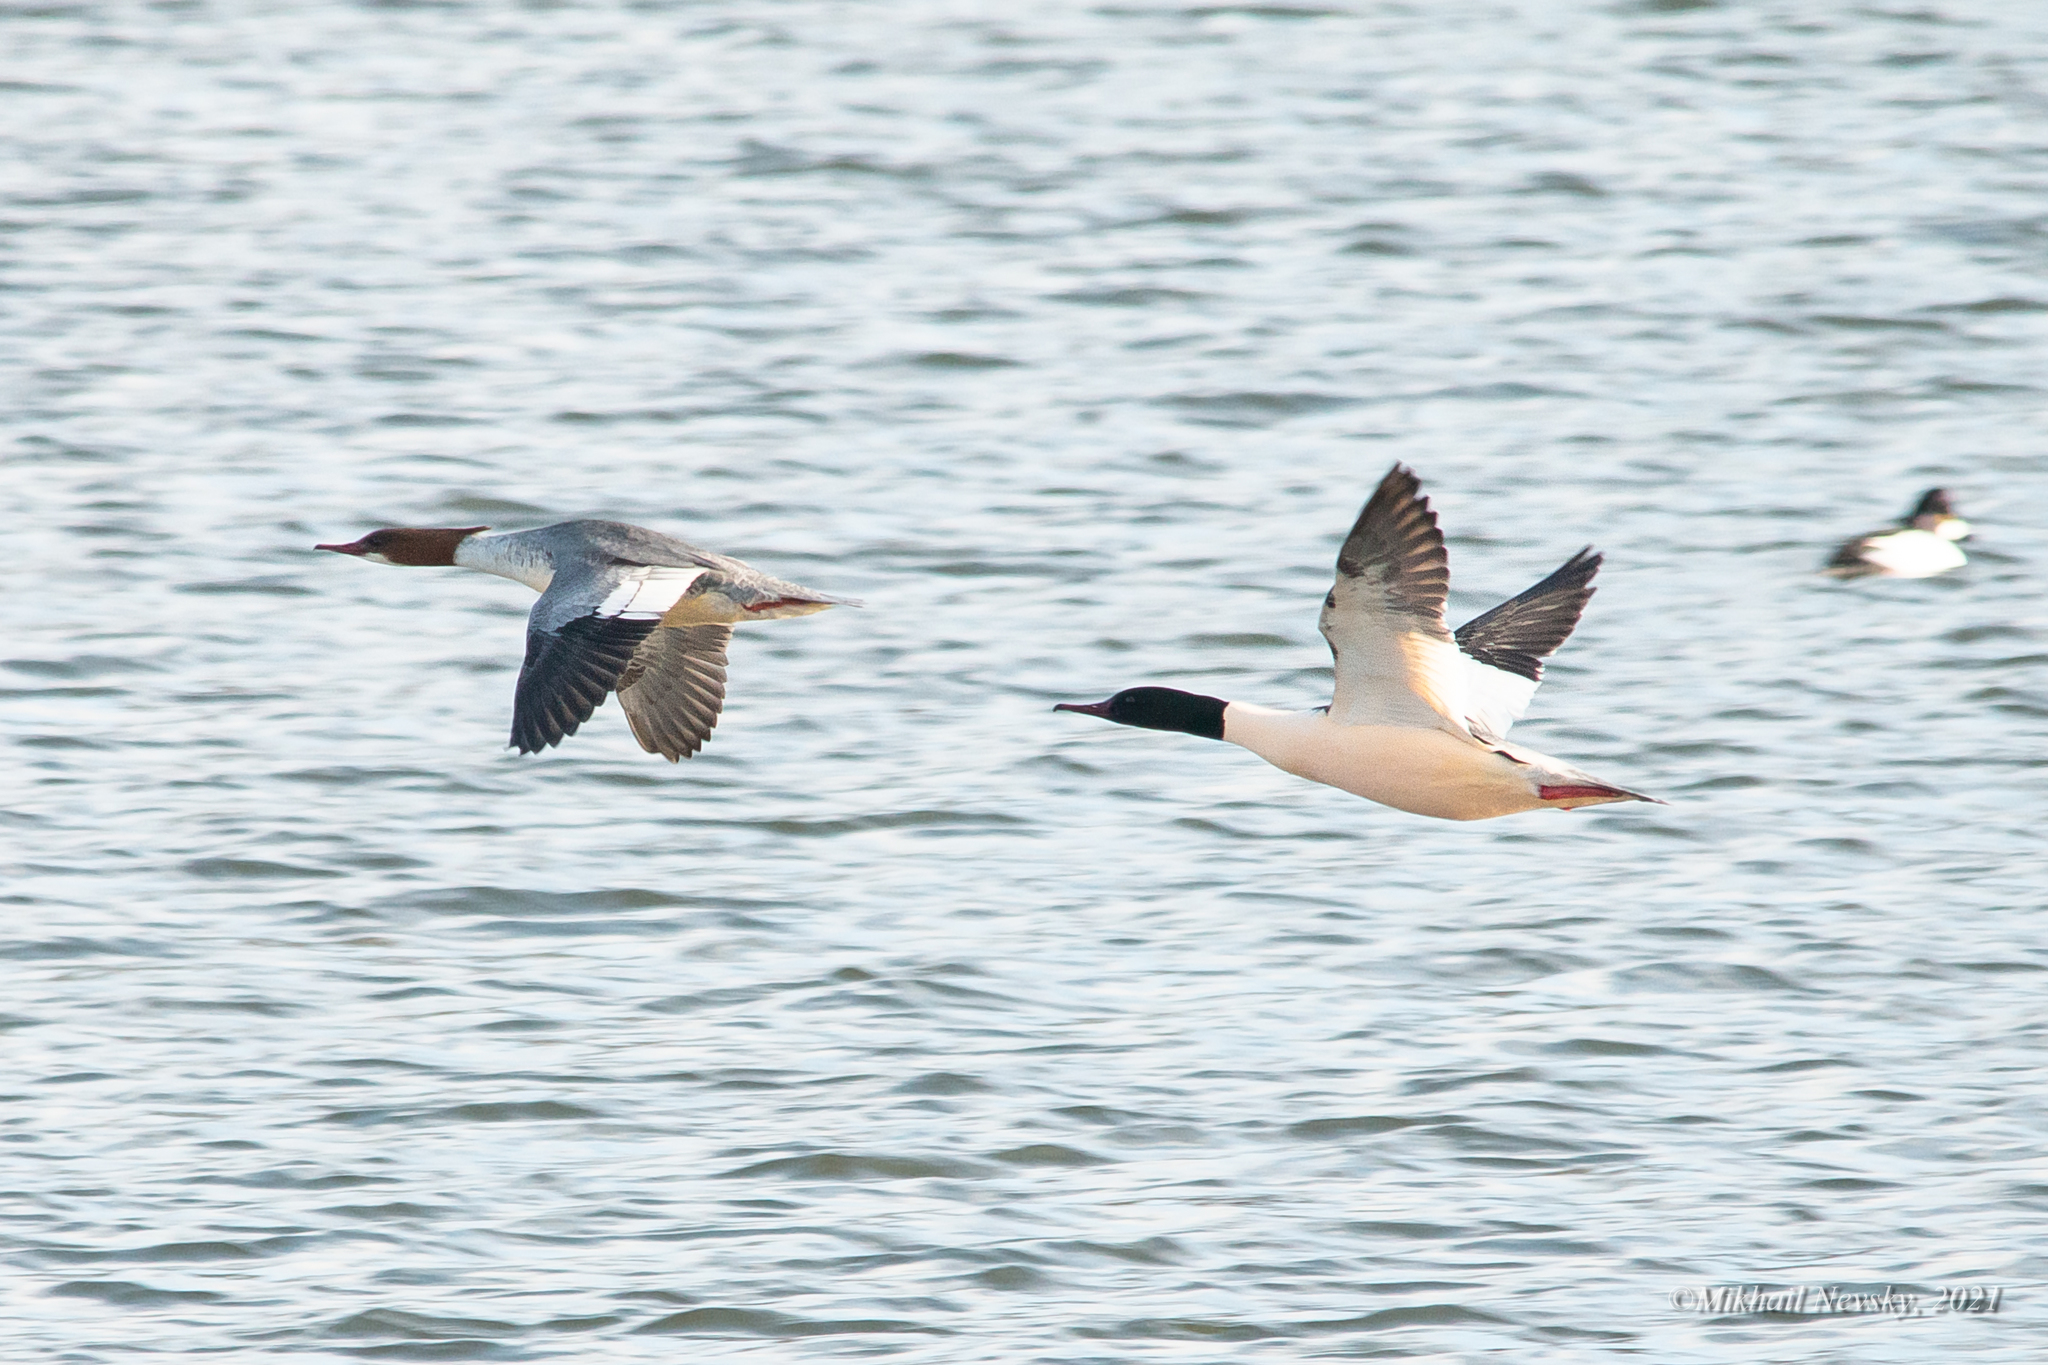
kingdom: Animalia
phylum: Chordata
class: Aves
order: Anseriformes
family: Anatidae
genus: Mergus
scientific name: Mergus merganser
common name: Common merganser
